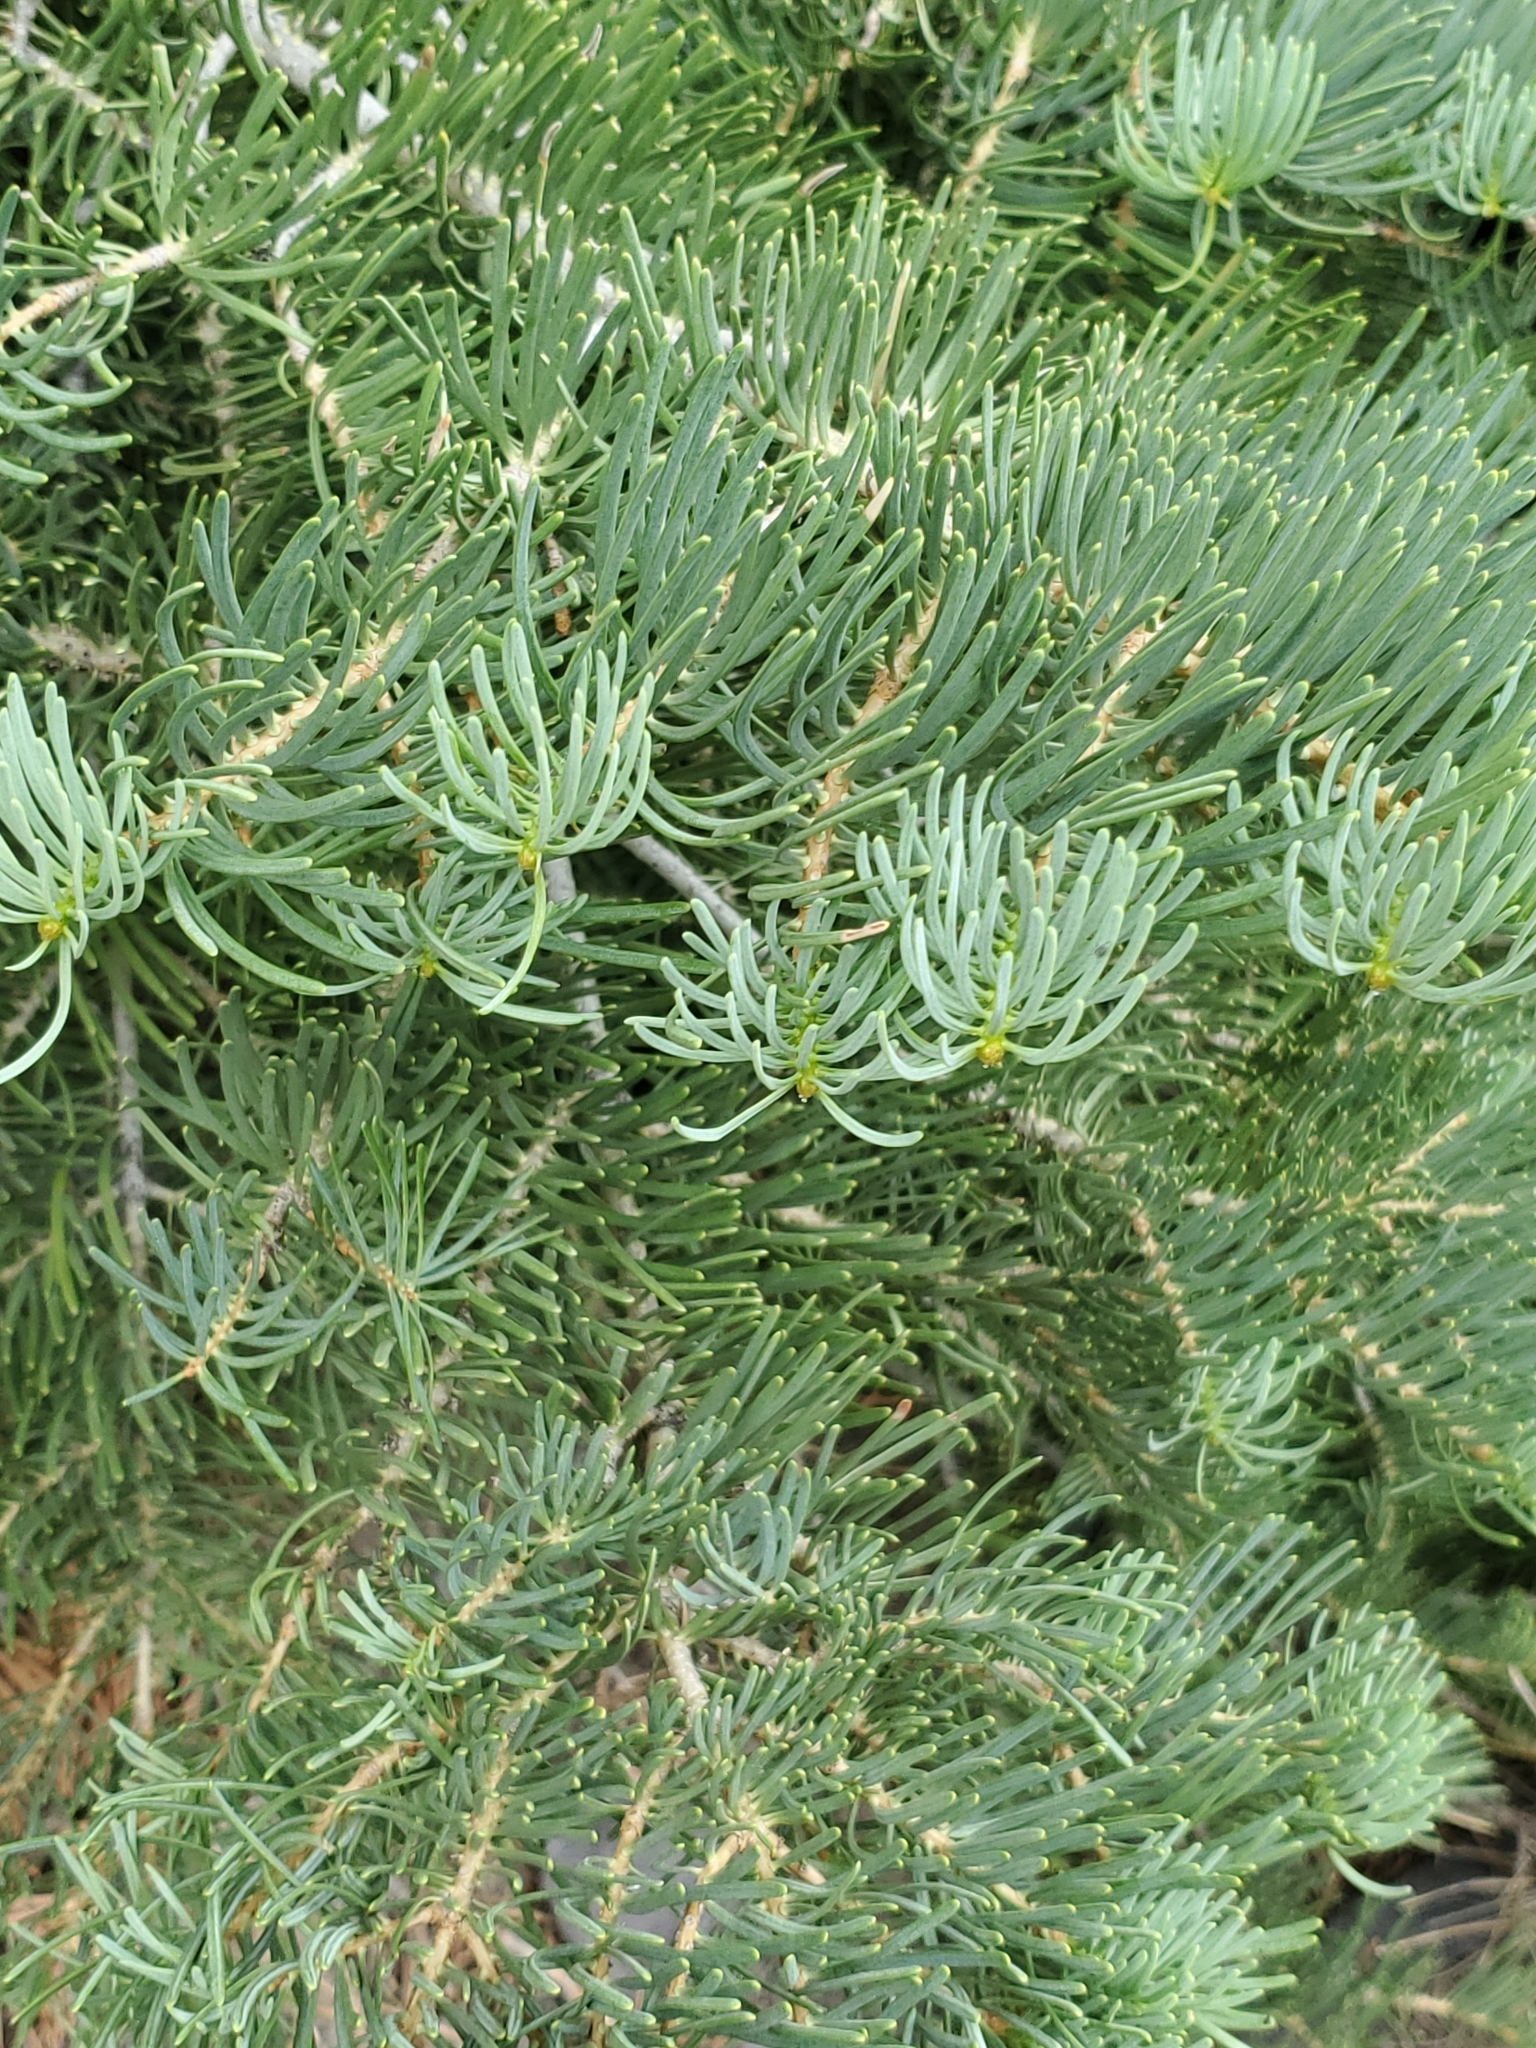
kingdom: Plantae
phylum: Tracheophyta
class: Pinopsida
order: Pinales
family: Pinaceae
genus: Abies
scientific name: Abies concolor
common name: Colorado fir
